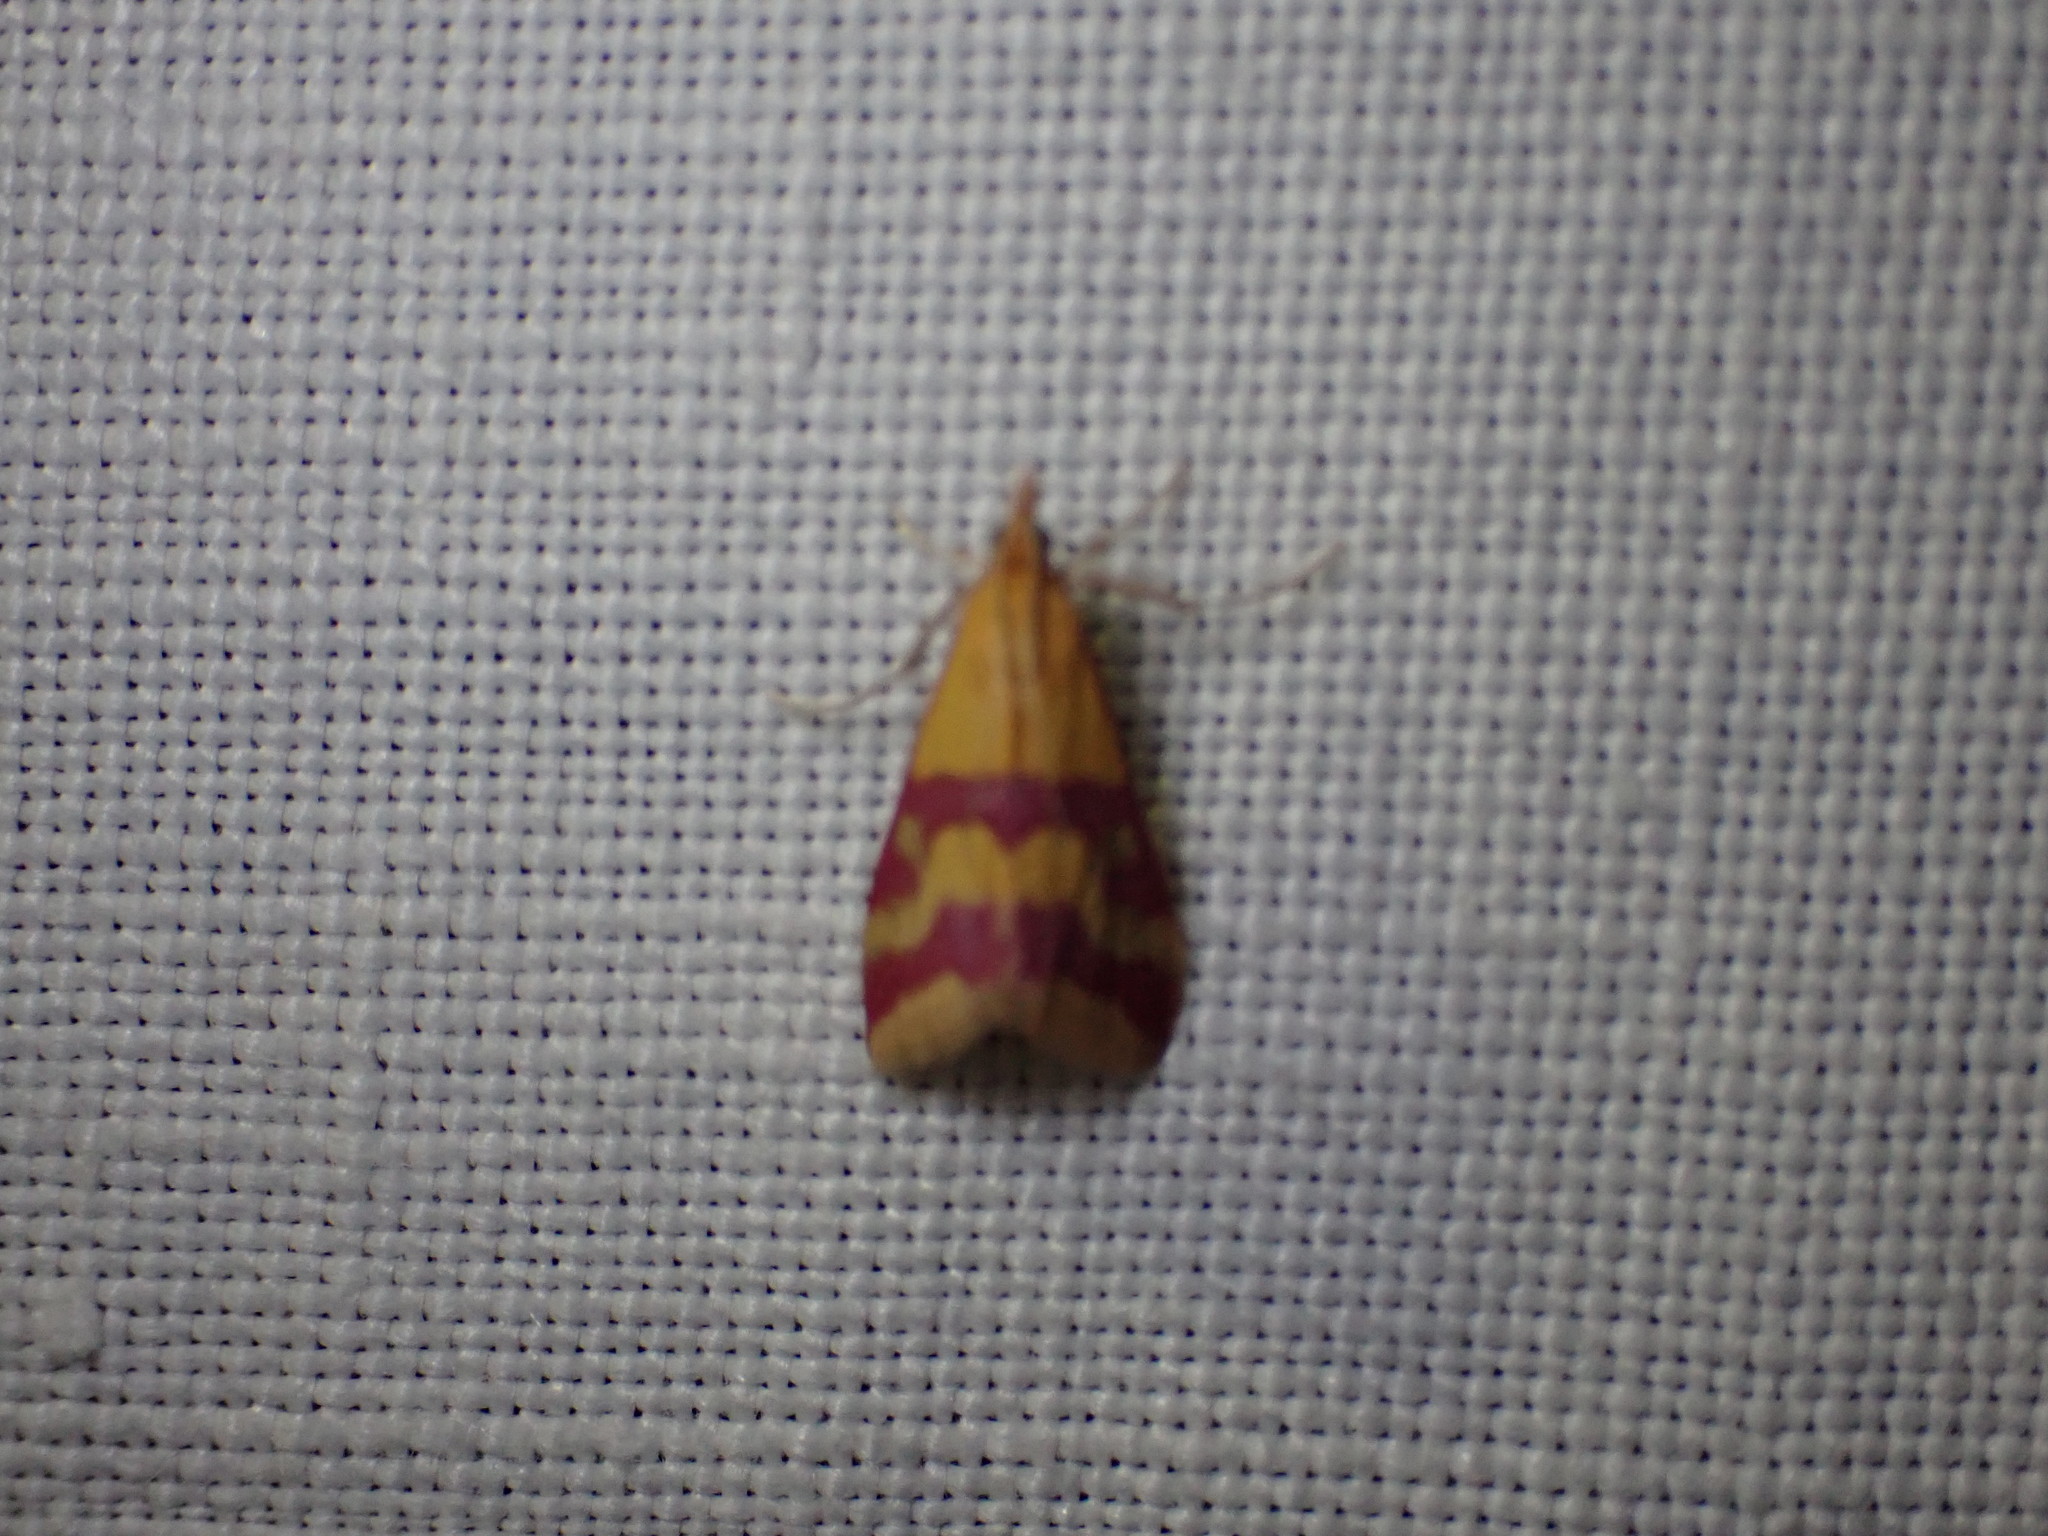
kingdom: Animalia
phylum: Arthropoda
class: Insecta
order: Lepidoptera
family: Crambidae
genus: Pyrausta
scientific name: Pyrausta sanguinalis
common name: Scarce crimson and gold
